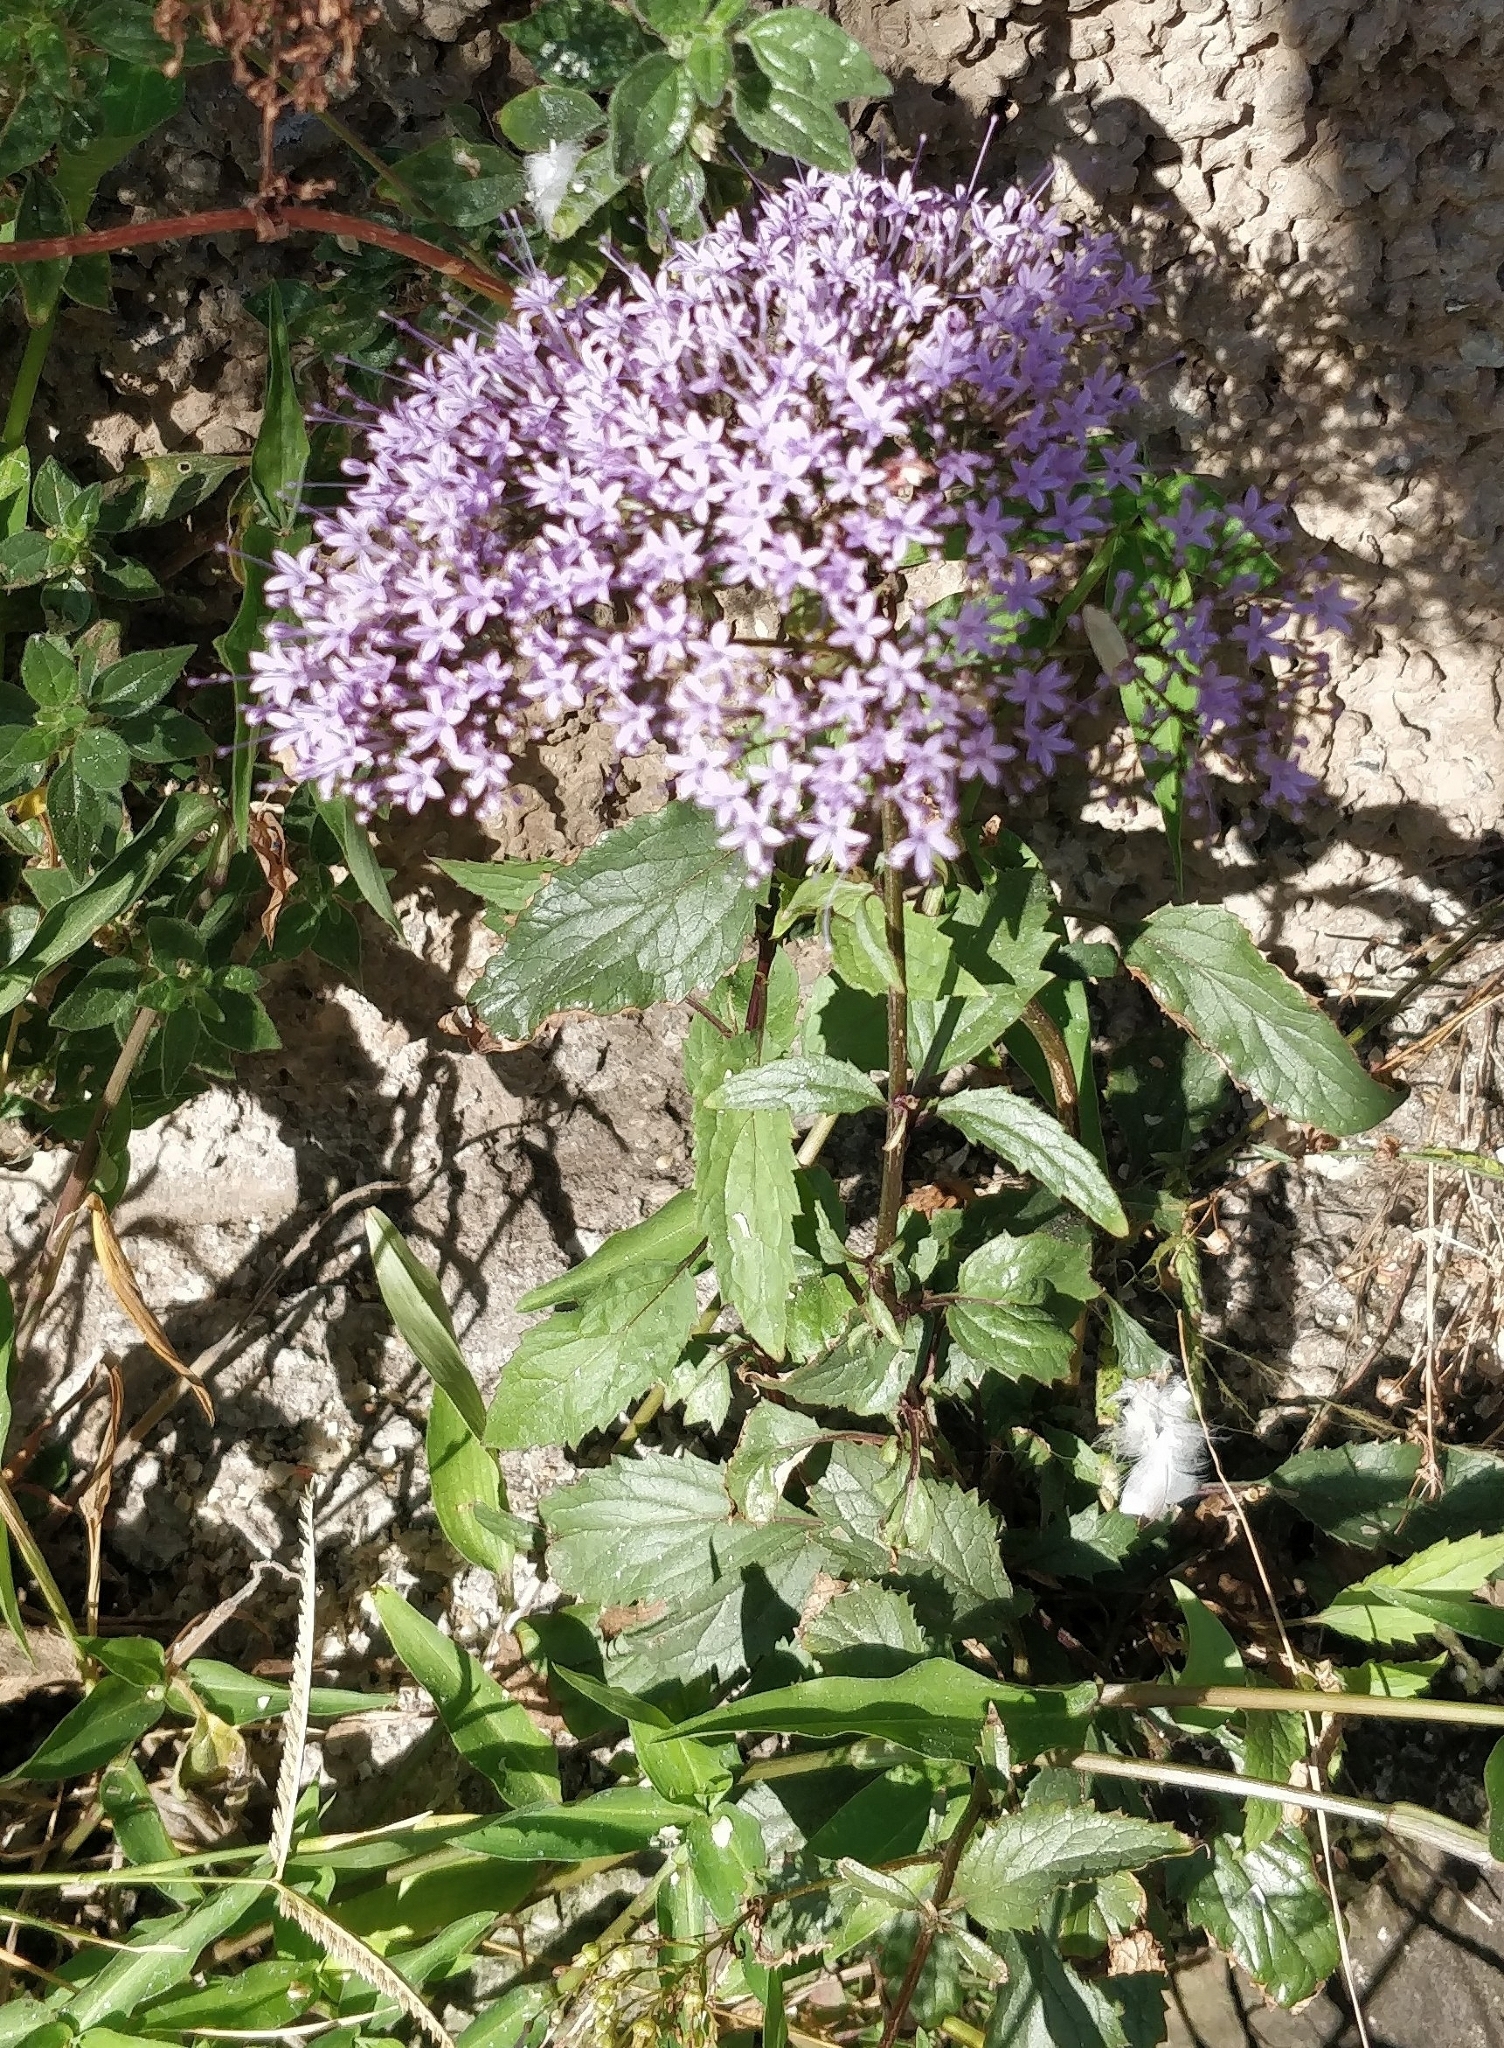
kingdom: Plantae
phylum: Tracheophyta
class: Magnoliopsida
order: Asterales
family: Campanulaceae
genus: Trachelium
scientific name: Trachelium caeruleum
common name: Throatwort
